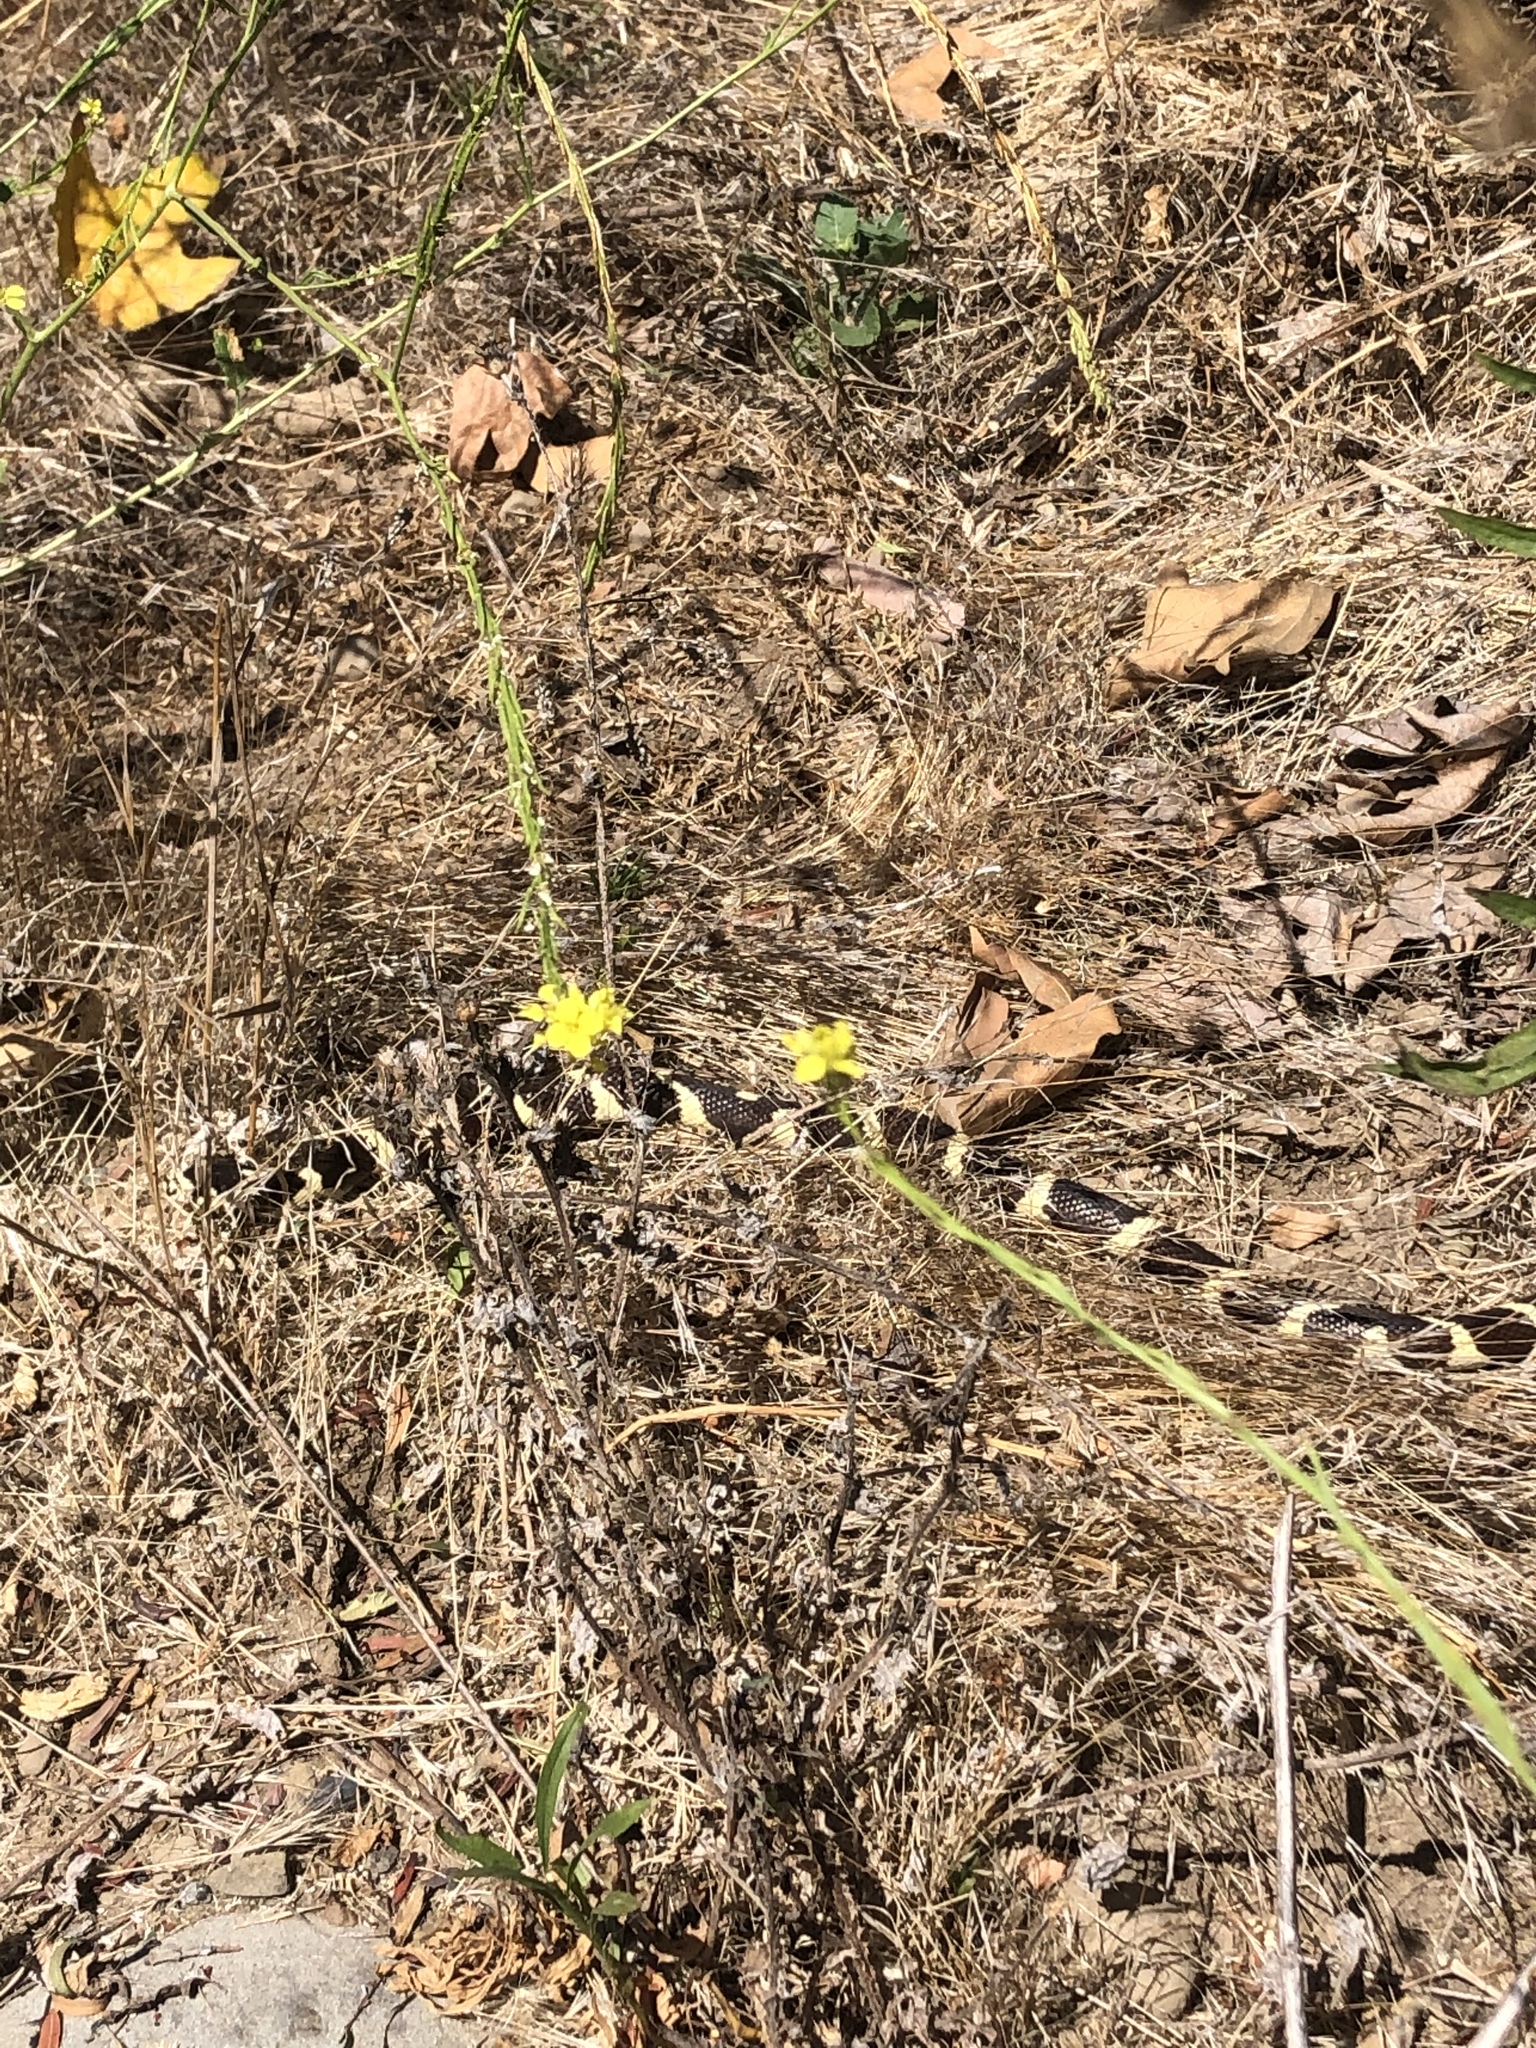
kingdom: Animalia
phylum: Chordata
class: Squamata
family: Colubridae
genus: Lampropeltis
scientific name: Lampropeltis californiae
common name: California kingsnake
